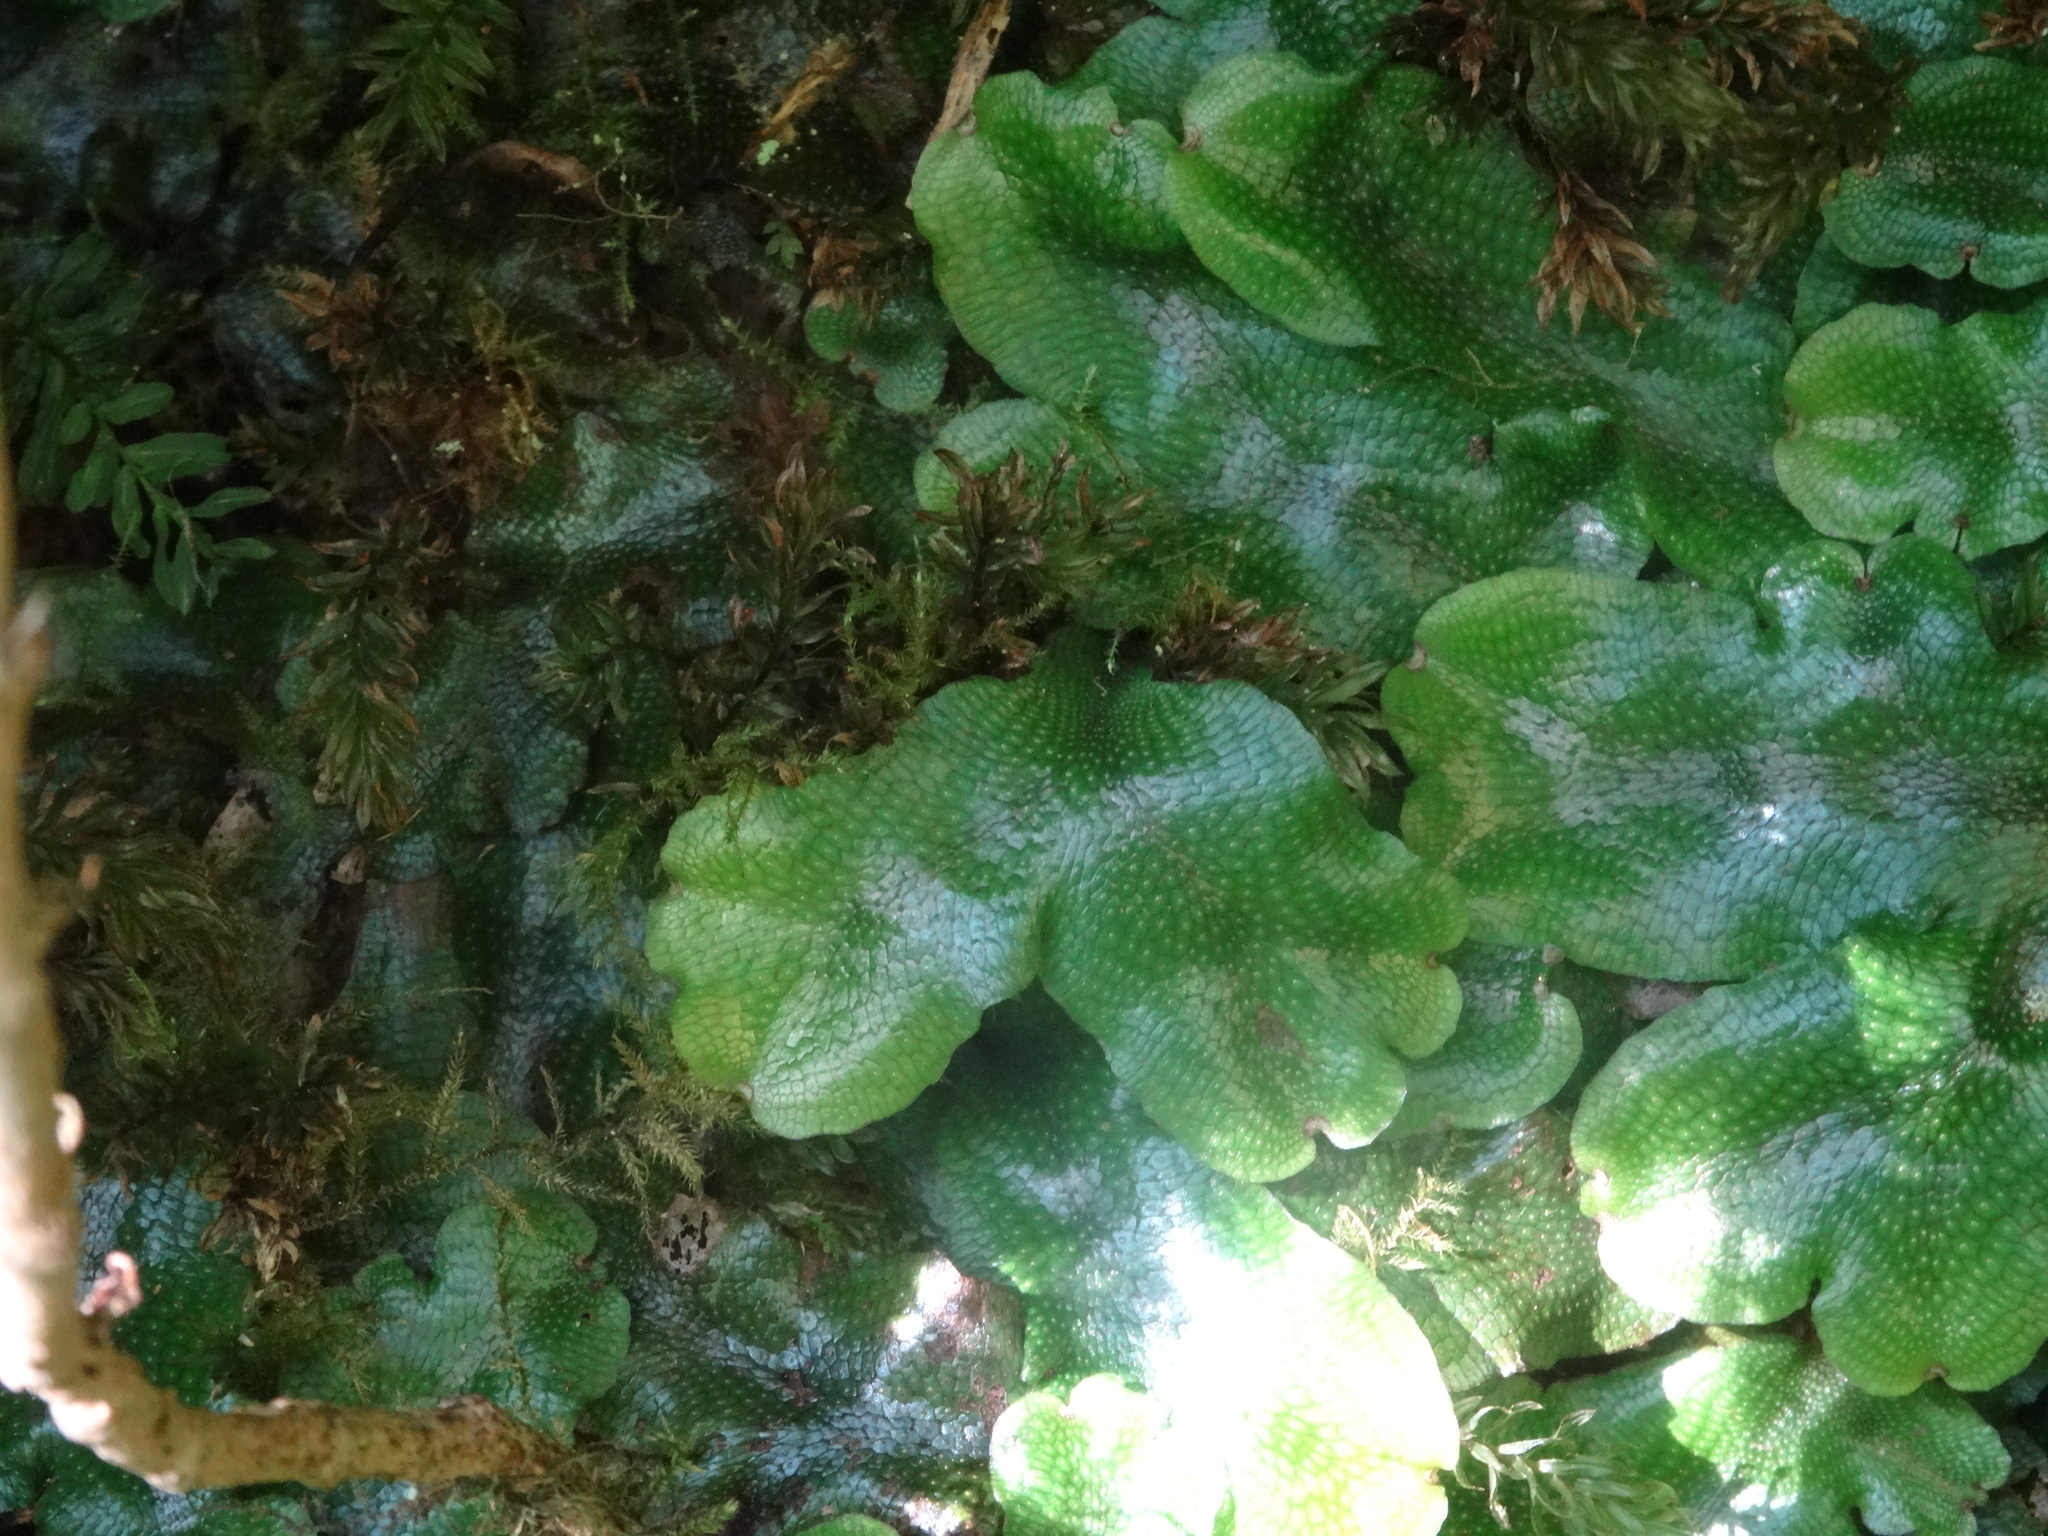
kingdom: Plantae
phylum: Marchantiophyta
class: Marchantiopsida
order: Marchantiales
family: Conocephalaceae
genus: Conocephalum
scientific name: Conocephalum conicum
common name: Great scented liverwort
